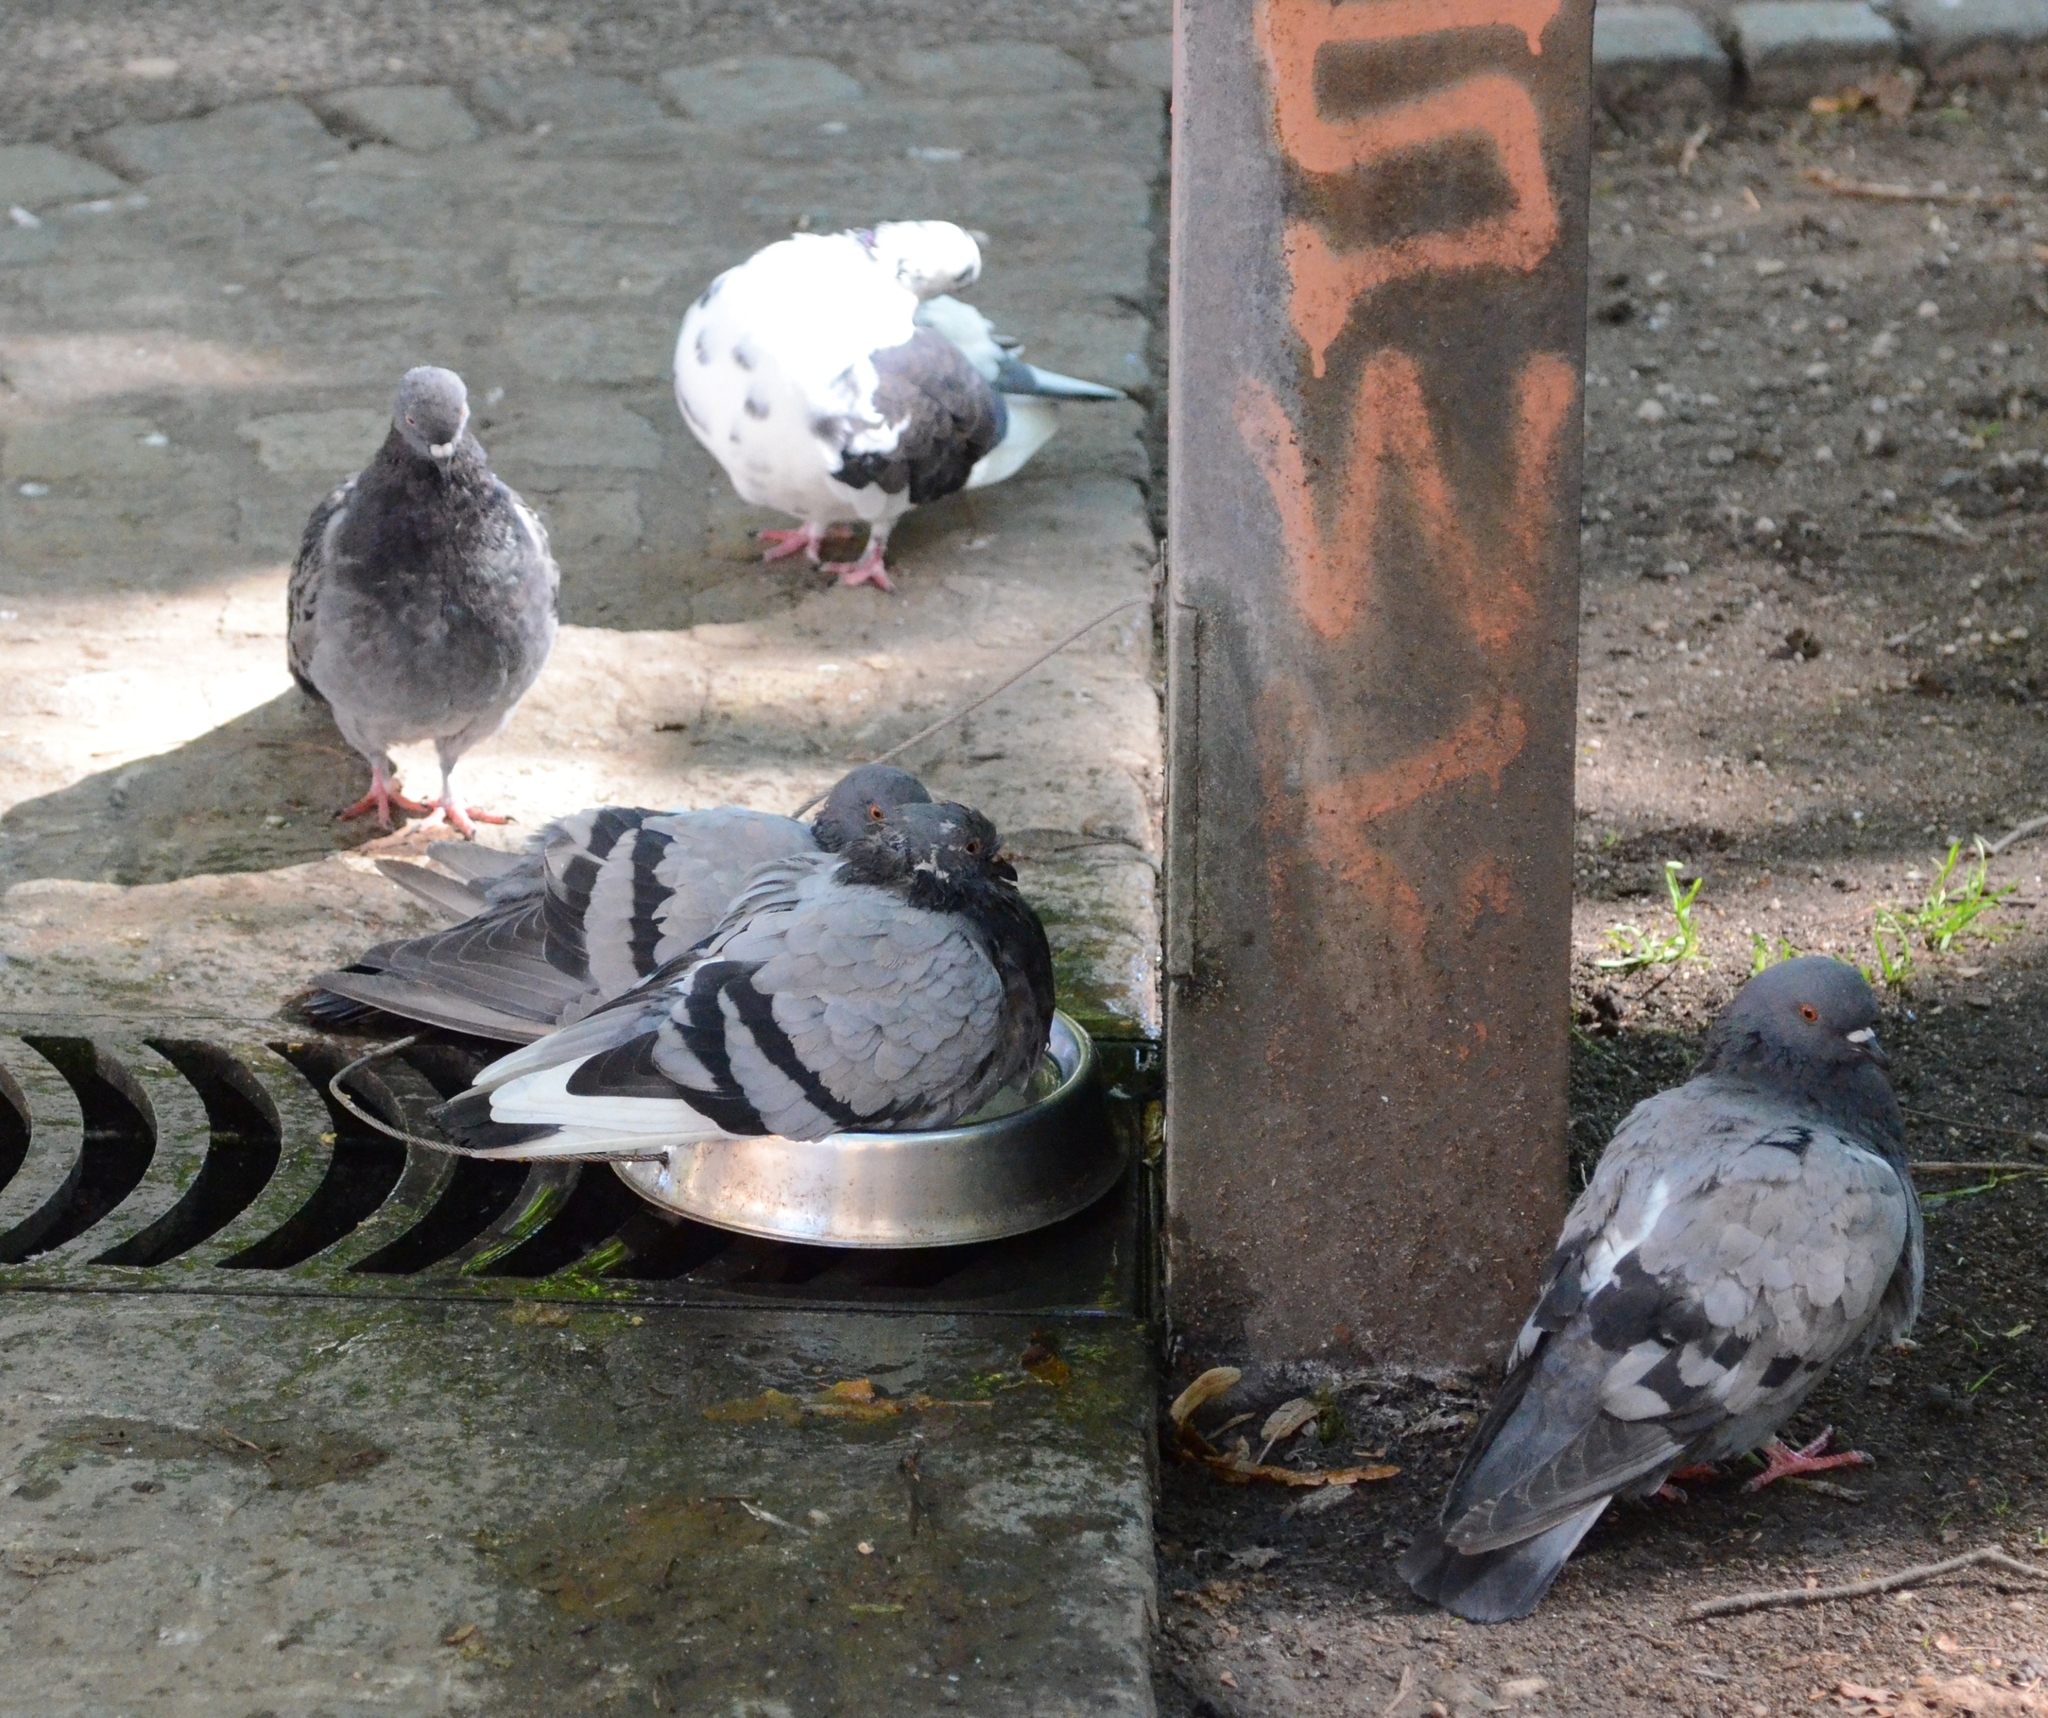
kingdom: Animalia
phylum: Chordata
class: Aves
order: Columbiformes
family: Columbidae
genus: Columba
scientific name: Columba livia
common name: Rock pigeon
